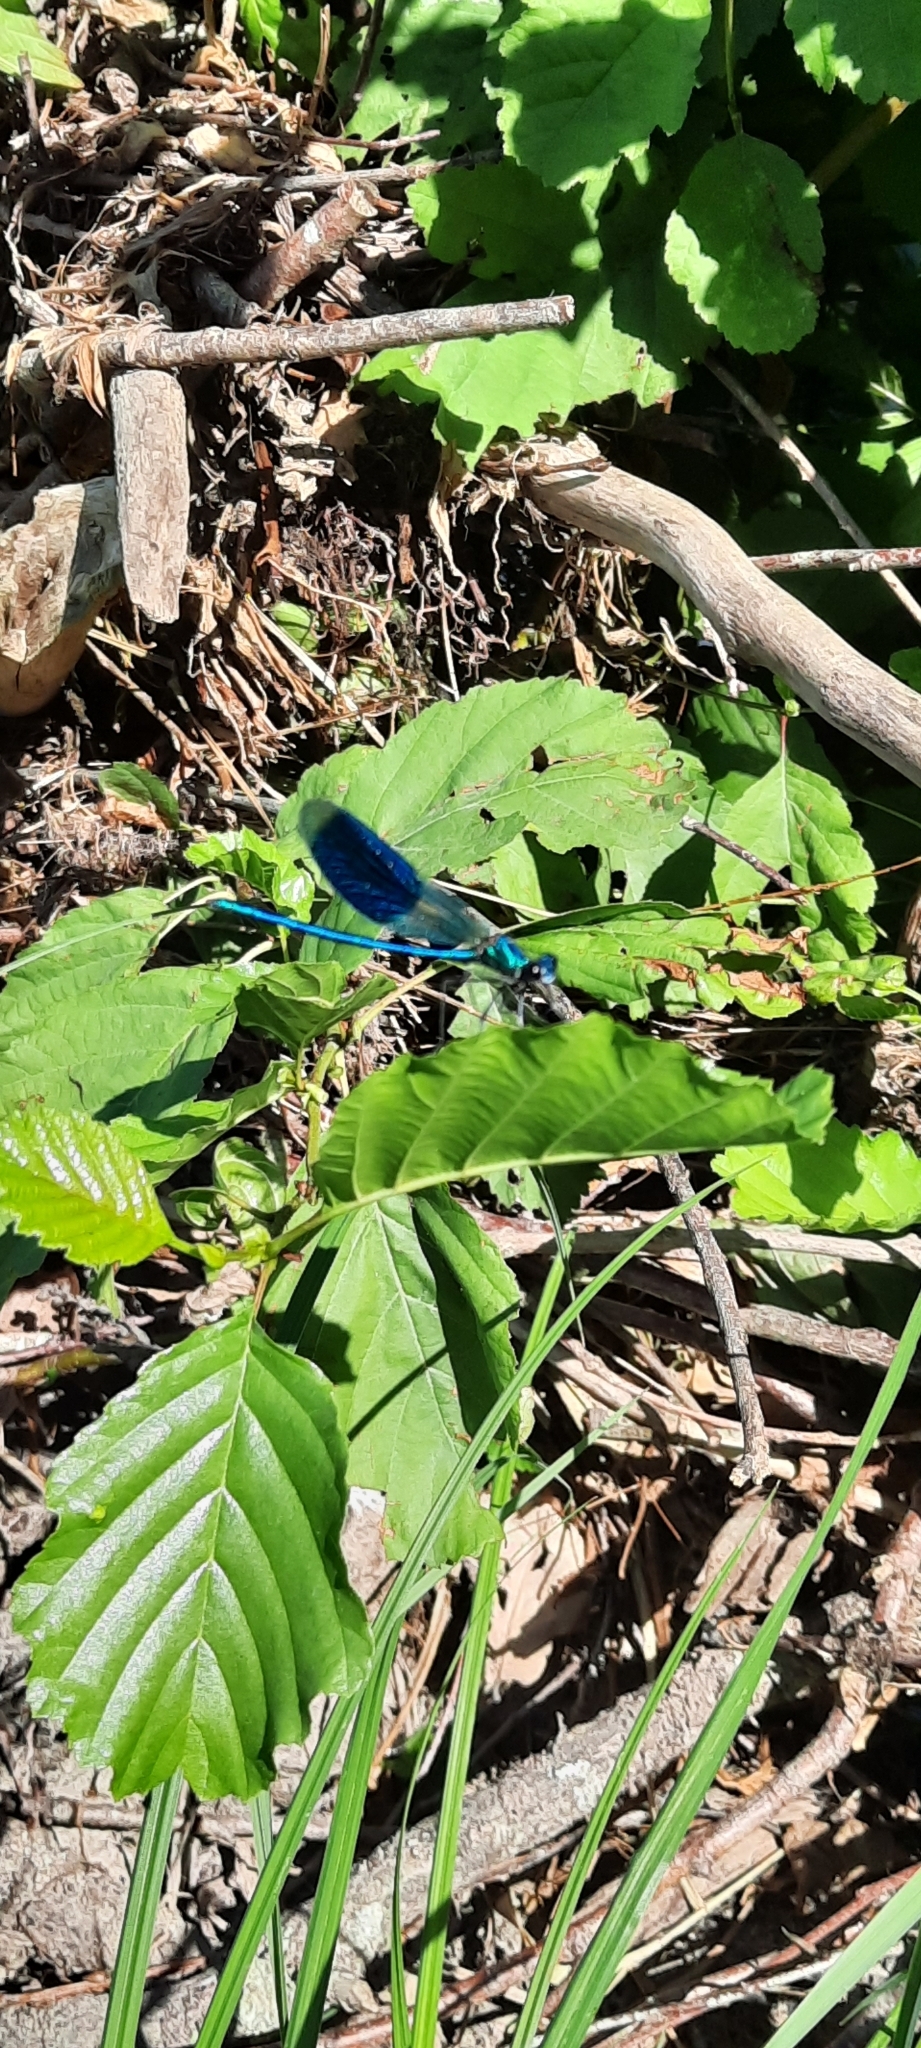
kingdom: Animalia
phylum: Arthropoda
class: Insecta
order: Odonata
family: Calopterygidae
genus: Calopteryx
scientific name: Calopteryx splendens
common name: Banded demoiselle
